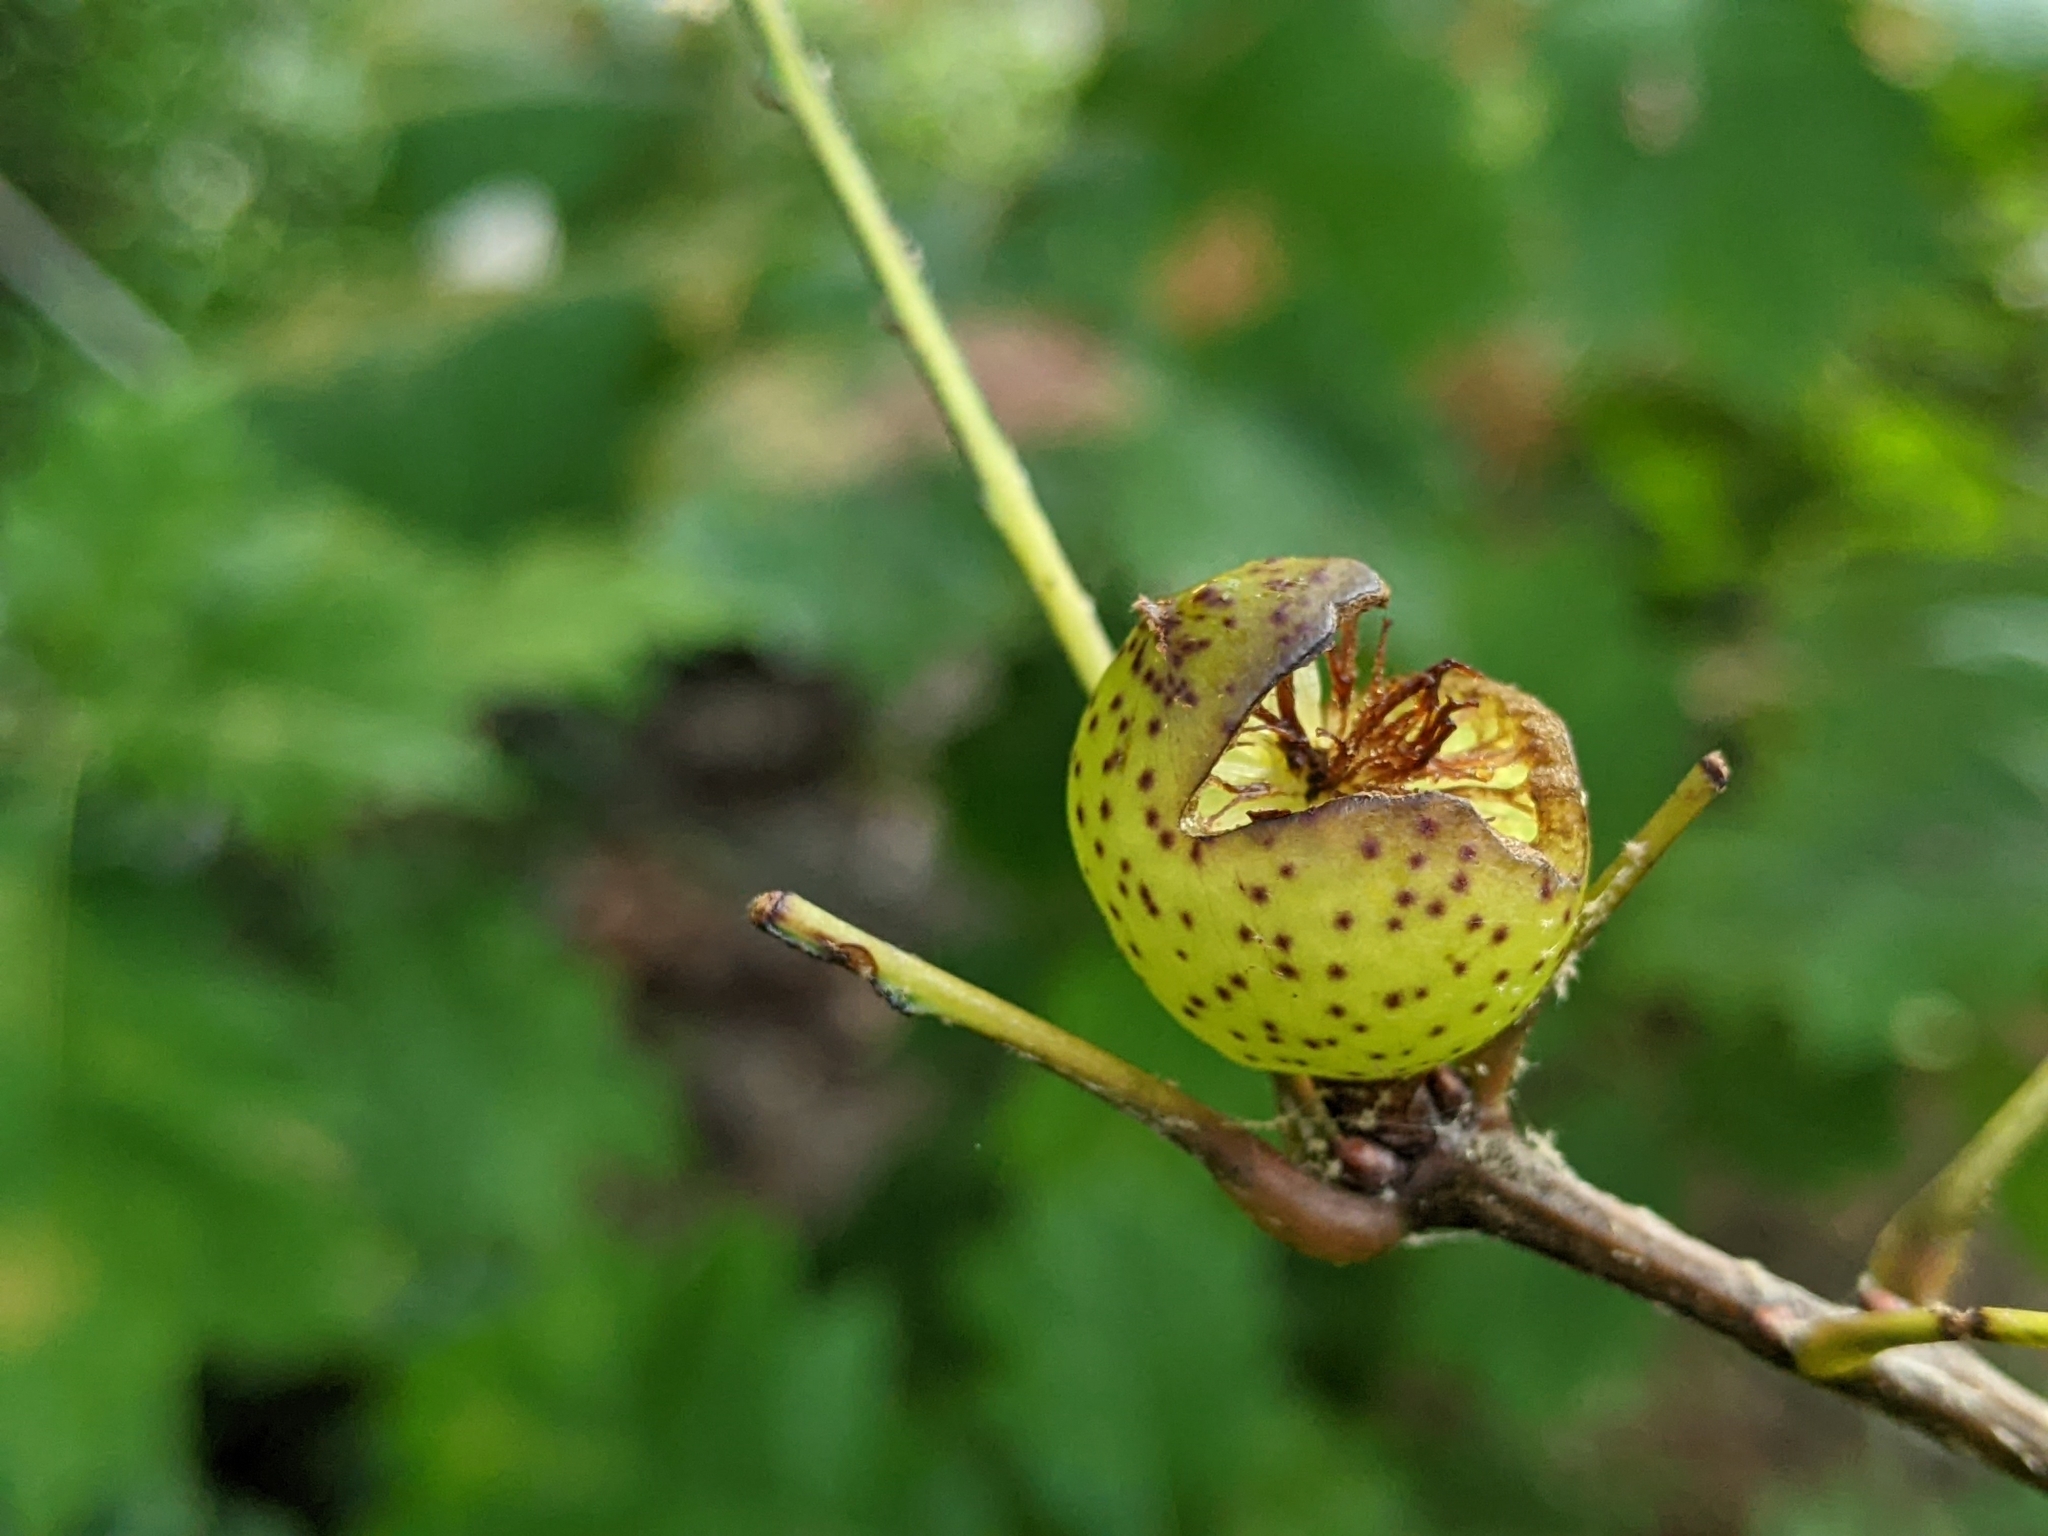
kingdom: Animalia
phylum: Arthropoda
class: Insecta
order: Hymenoptera
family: Cynipidae
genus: Amphibolips
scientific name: Amphibolips
